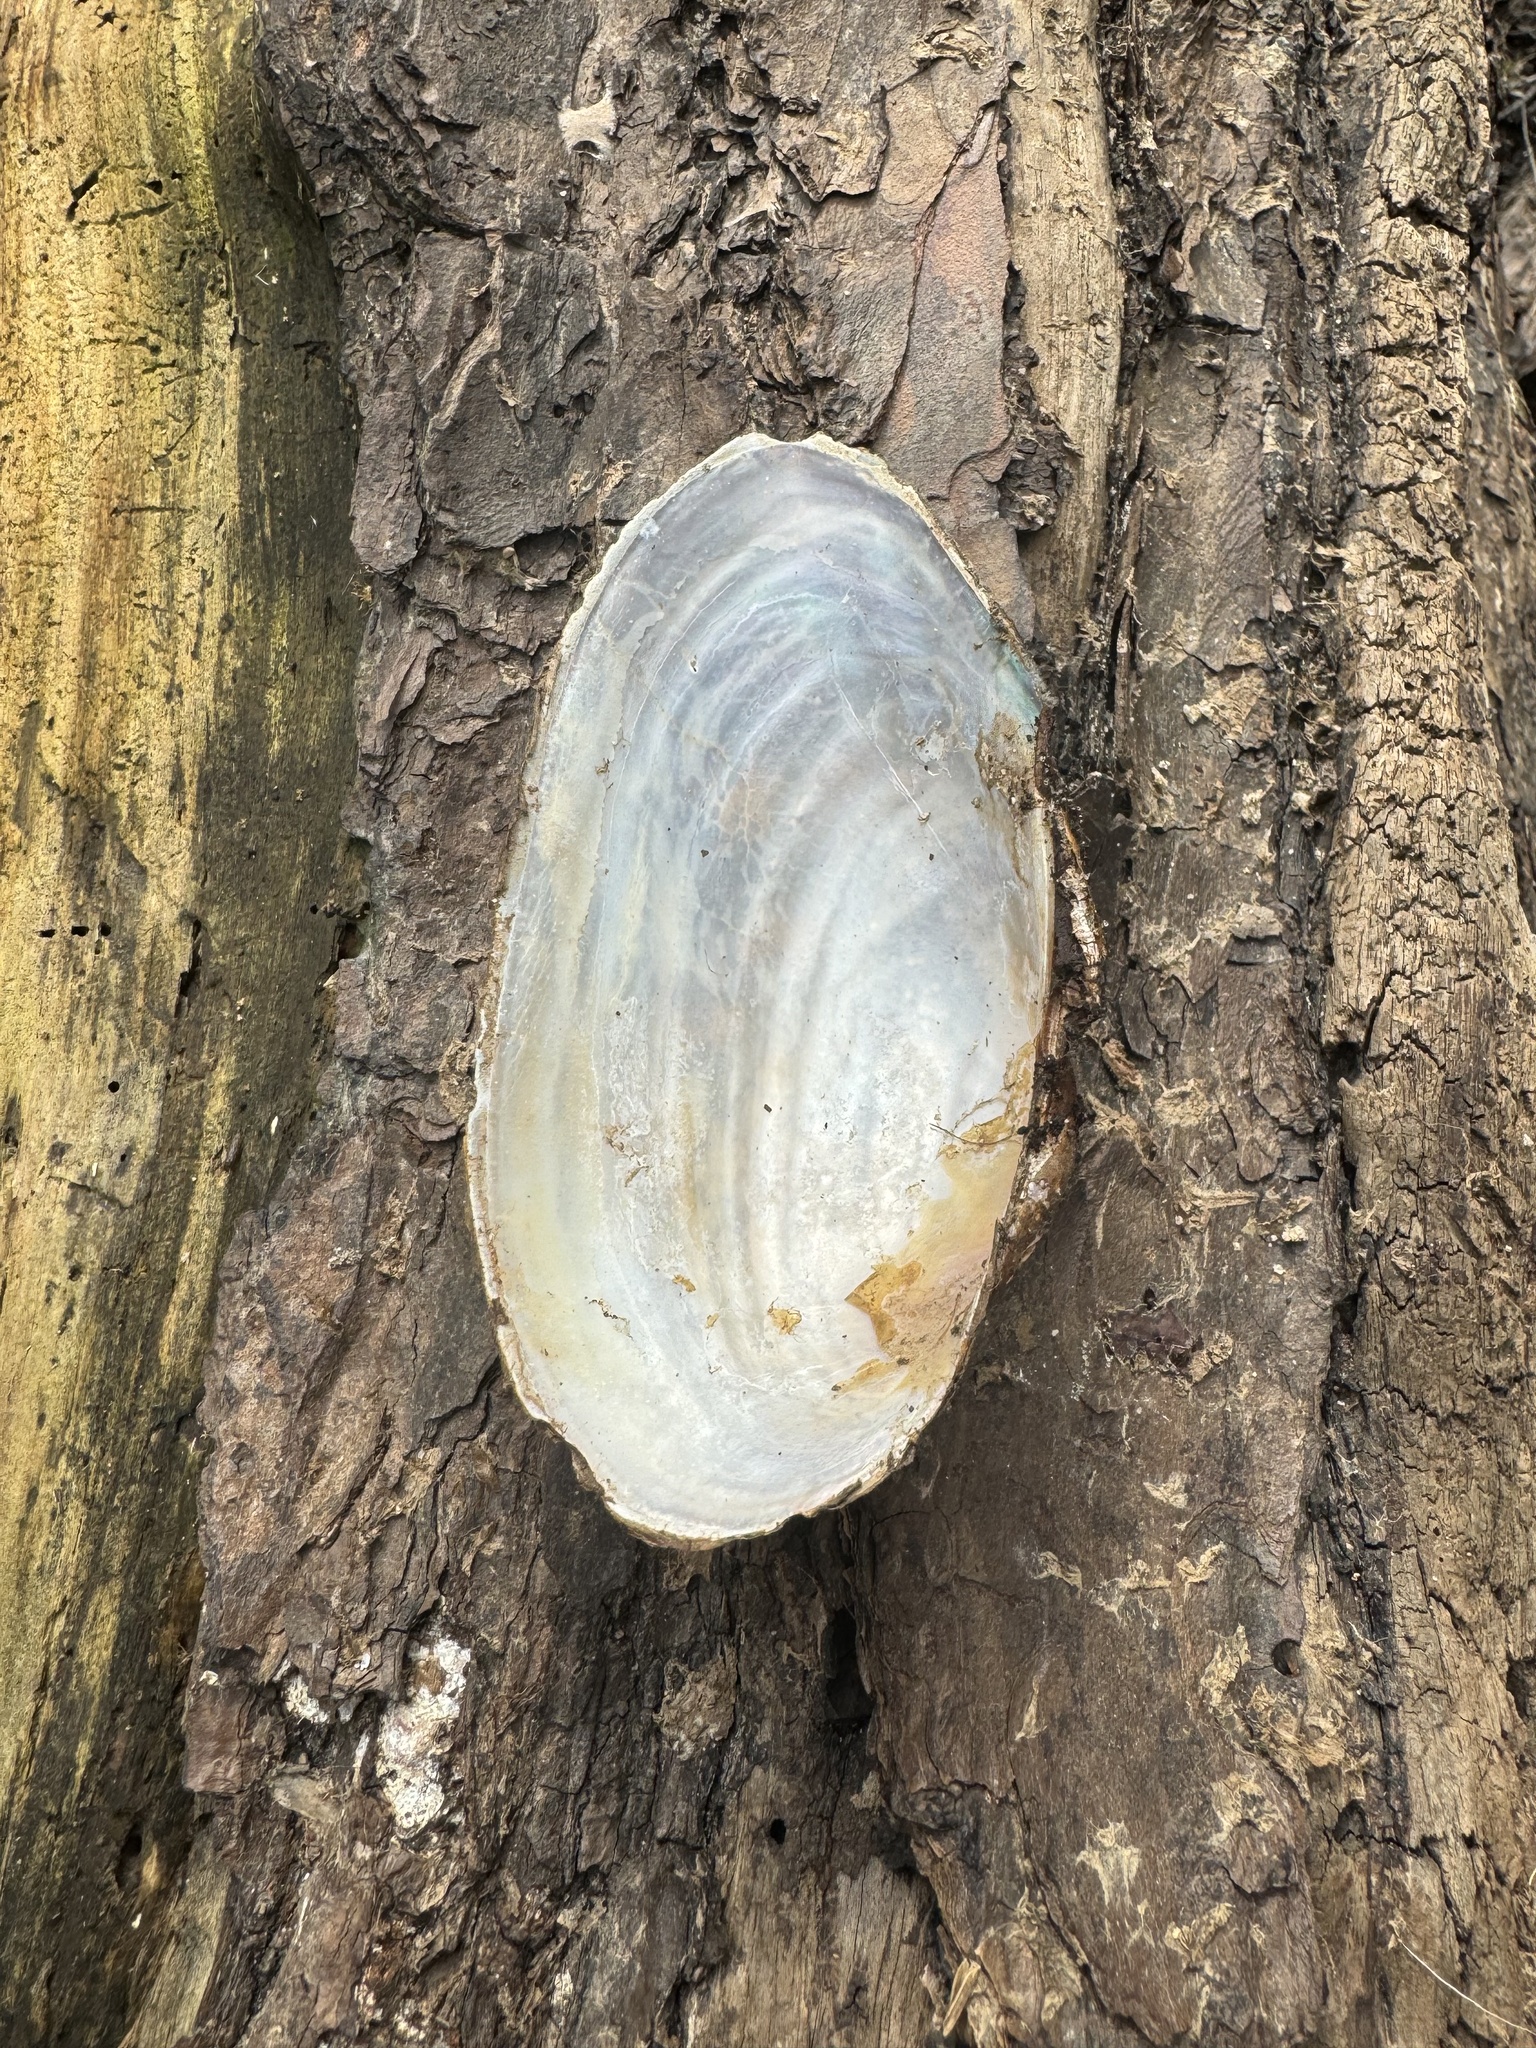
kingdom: Animalia
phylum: Mollusca
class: Bivalvia
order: Unionida
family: Unionidae
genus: Pyganodon
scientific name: Pyganodon cataracta
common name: Eastern floater
